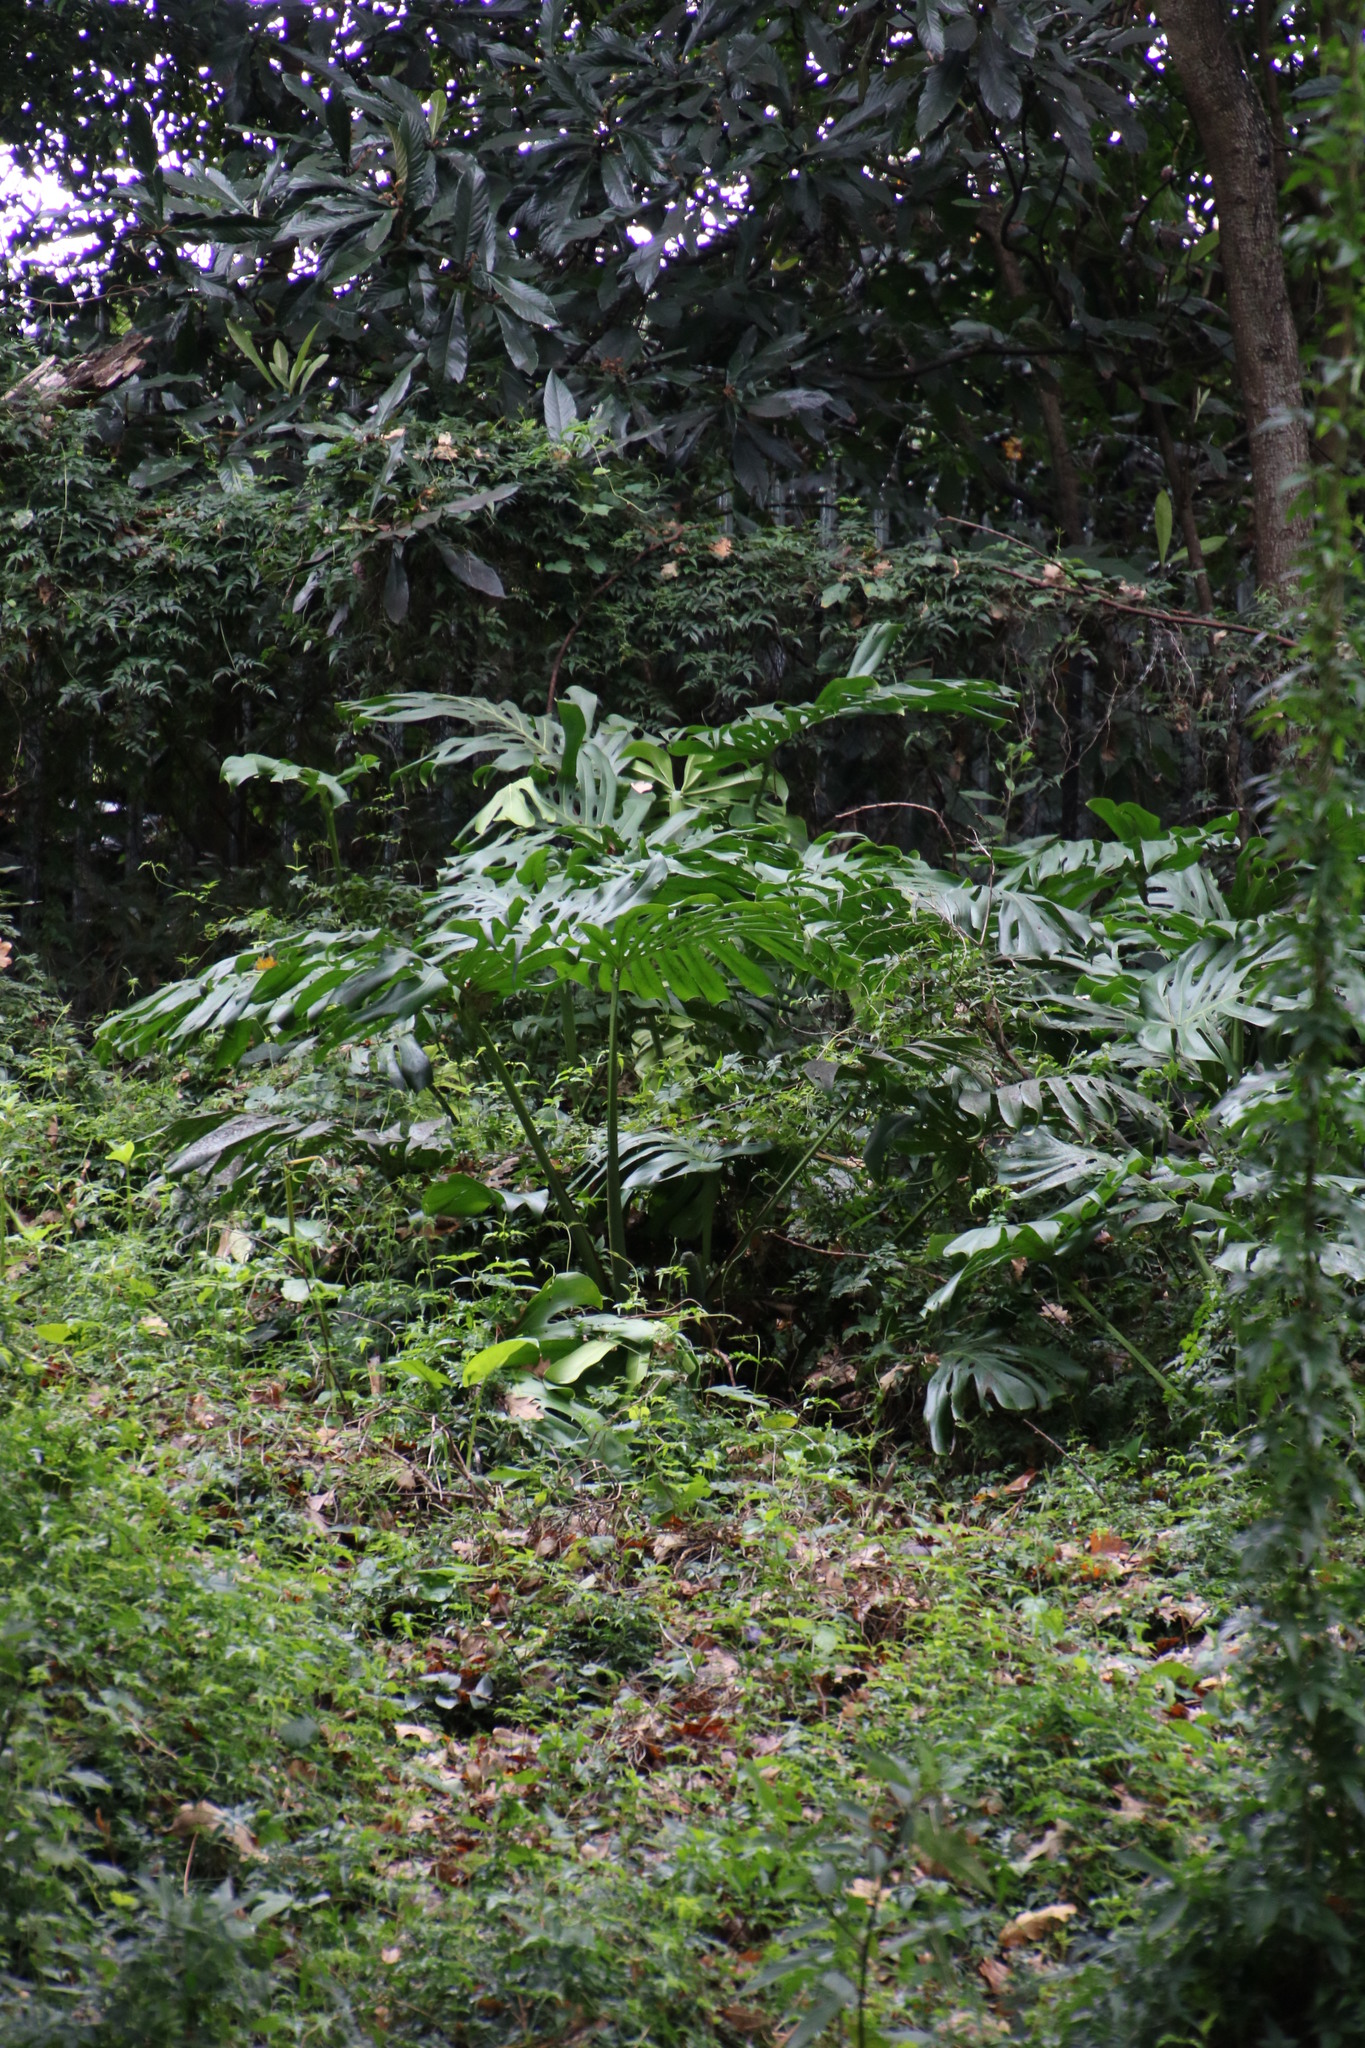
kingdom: Plantae
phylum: Tracheophyta
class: Liliopsida
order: Alismatales
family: Araceae
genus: Monstera
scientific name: Monstera deliciosa
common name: Cut-leaf-philodendron
